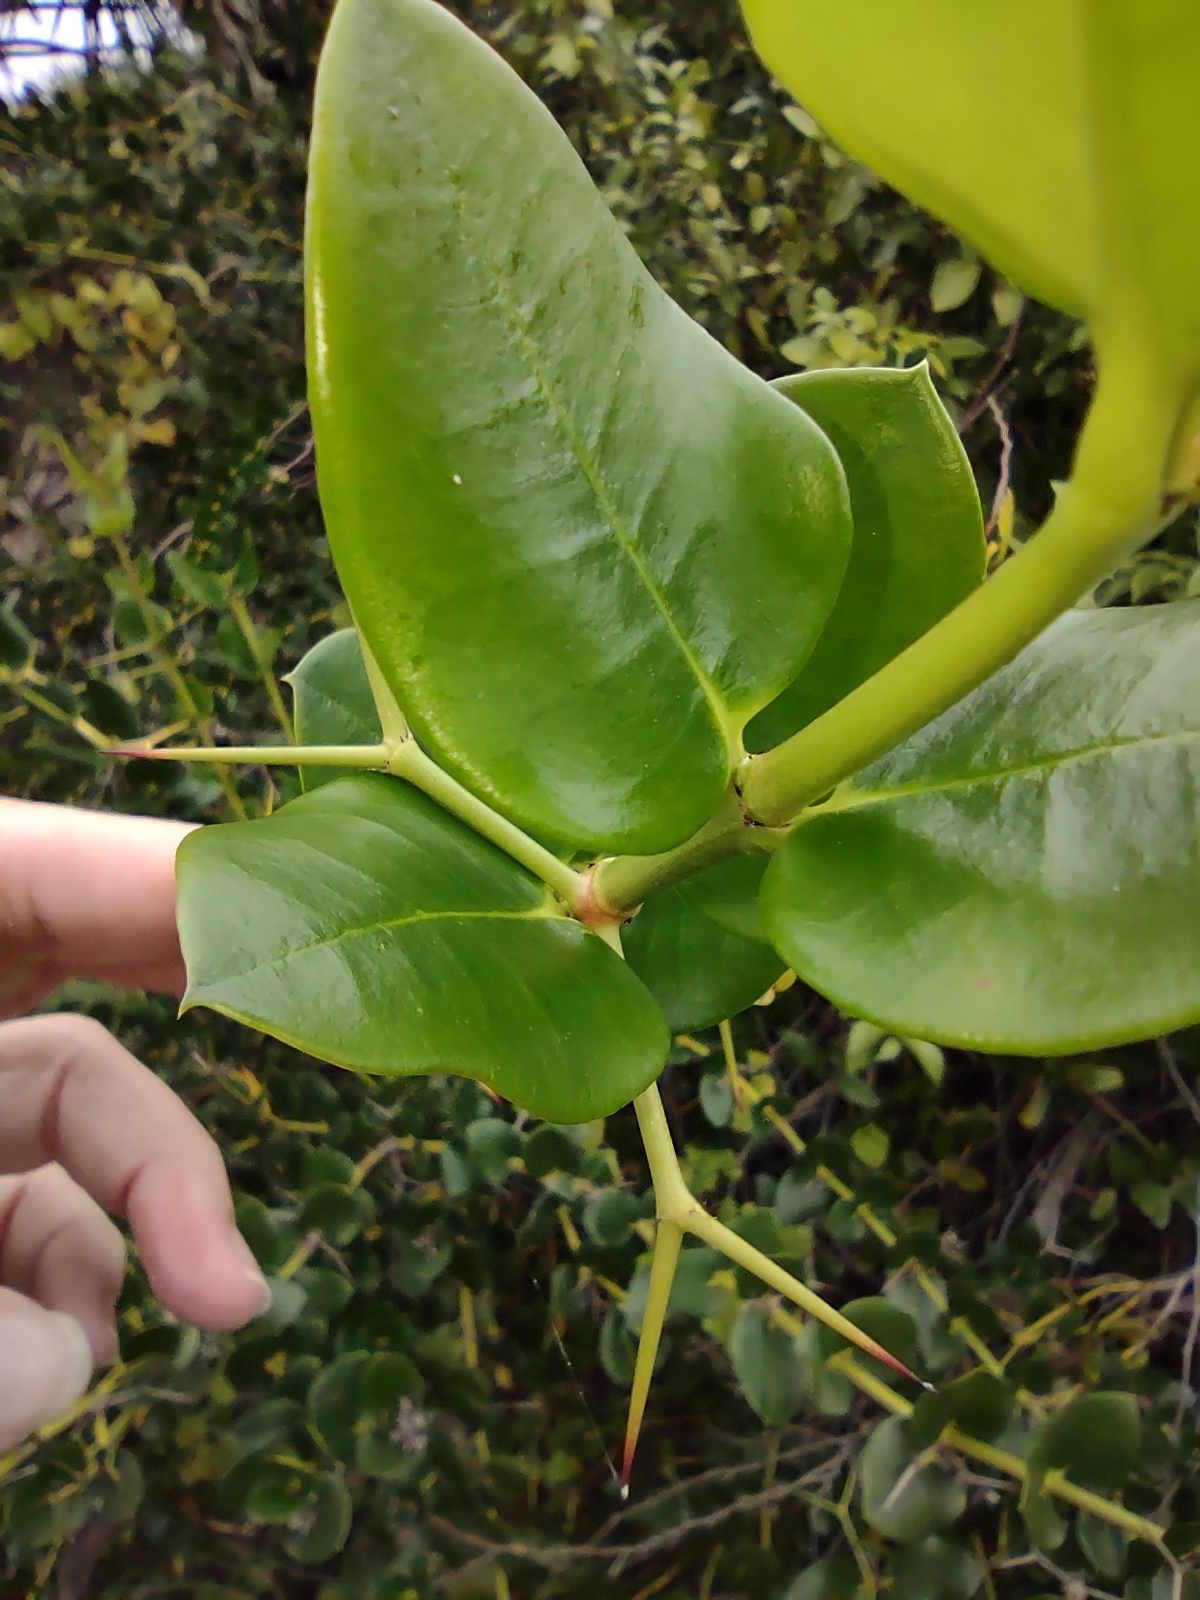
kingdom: Plantae
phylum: Tracheophyta
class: Magnoliopsida
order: Gentianales
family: Apocynaceae
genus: Carissa
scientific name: Carissa macrocarpa
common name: Natal plum
